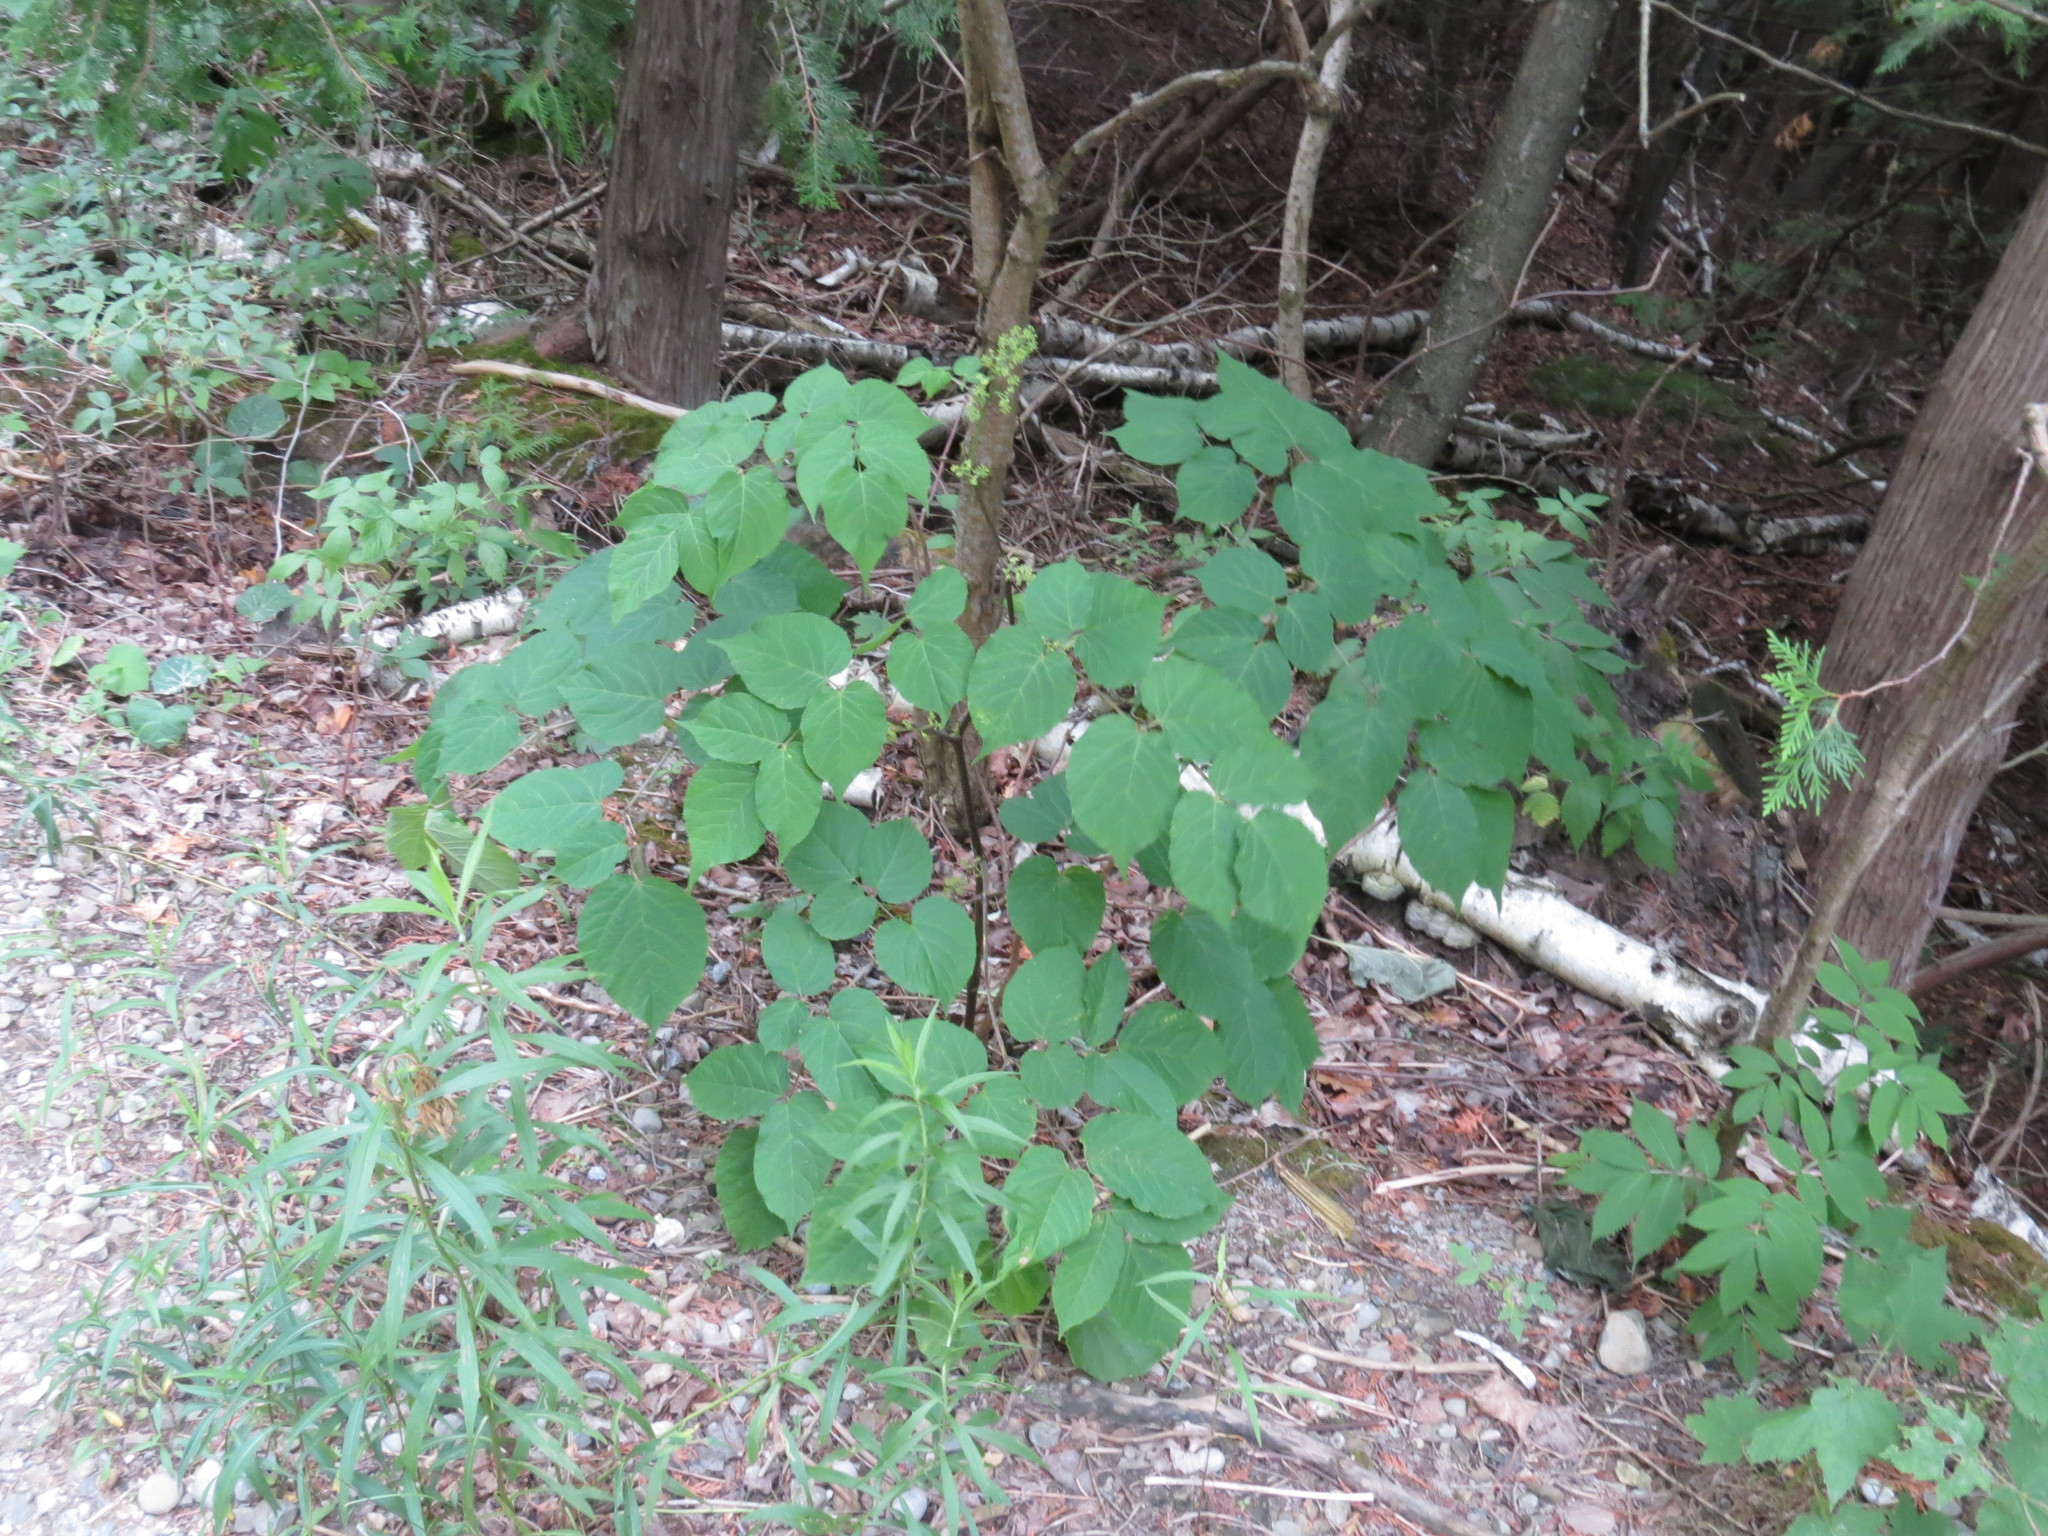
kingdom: Plantae
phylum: Tracheophyta
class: Magnoliopsida
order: Apiales
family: Araliaceae
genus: Aralia
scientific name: Aralia racemosa
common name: American-spikenard
